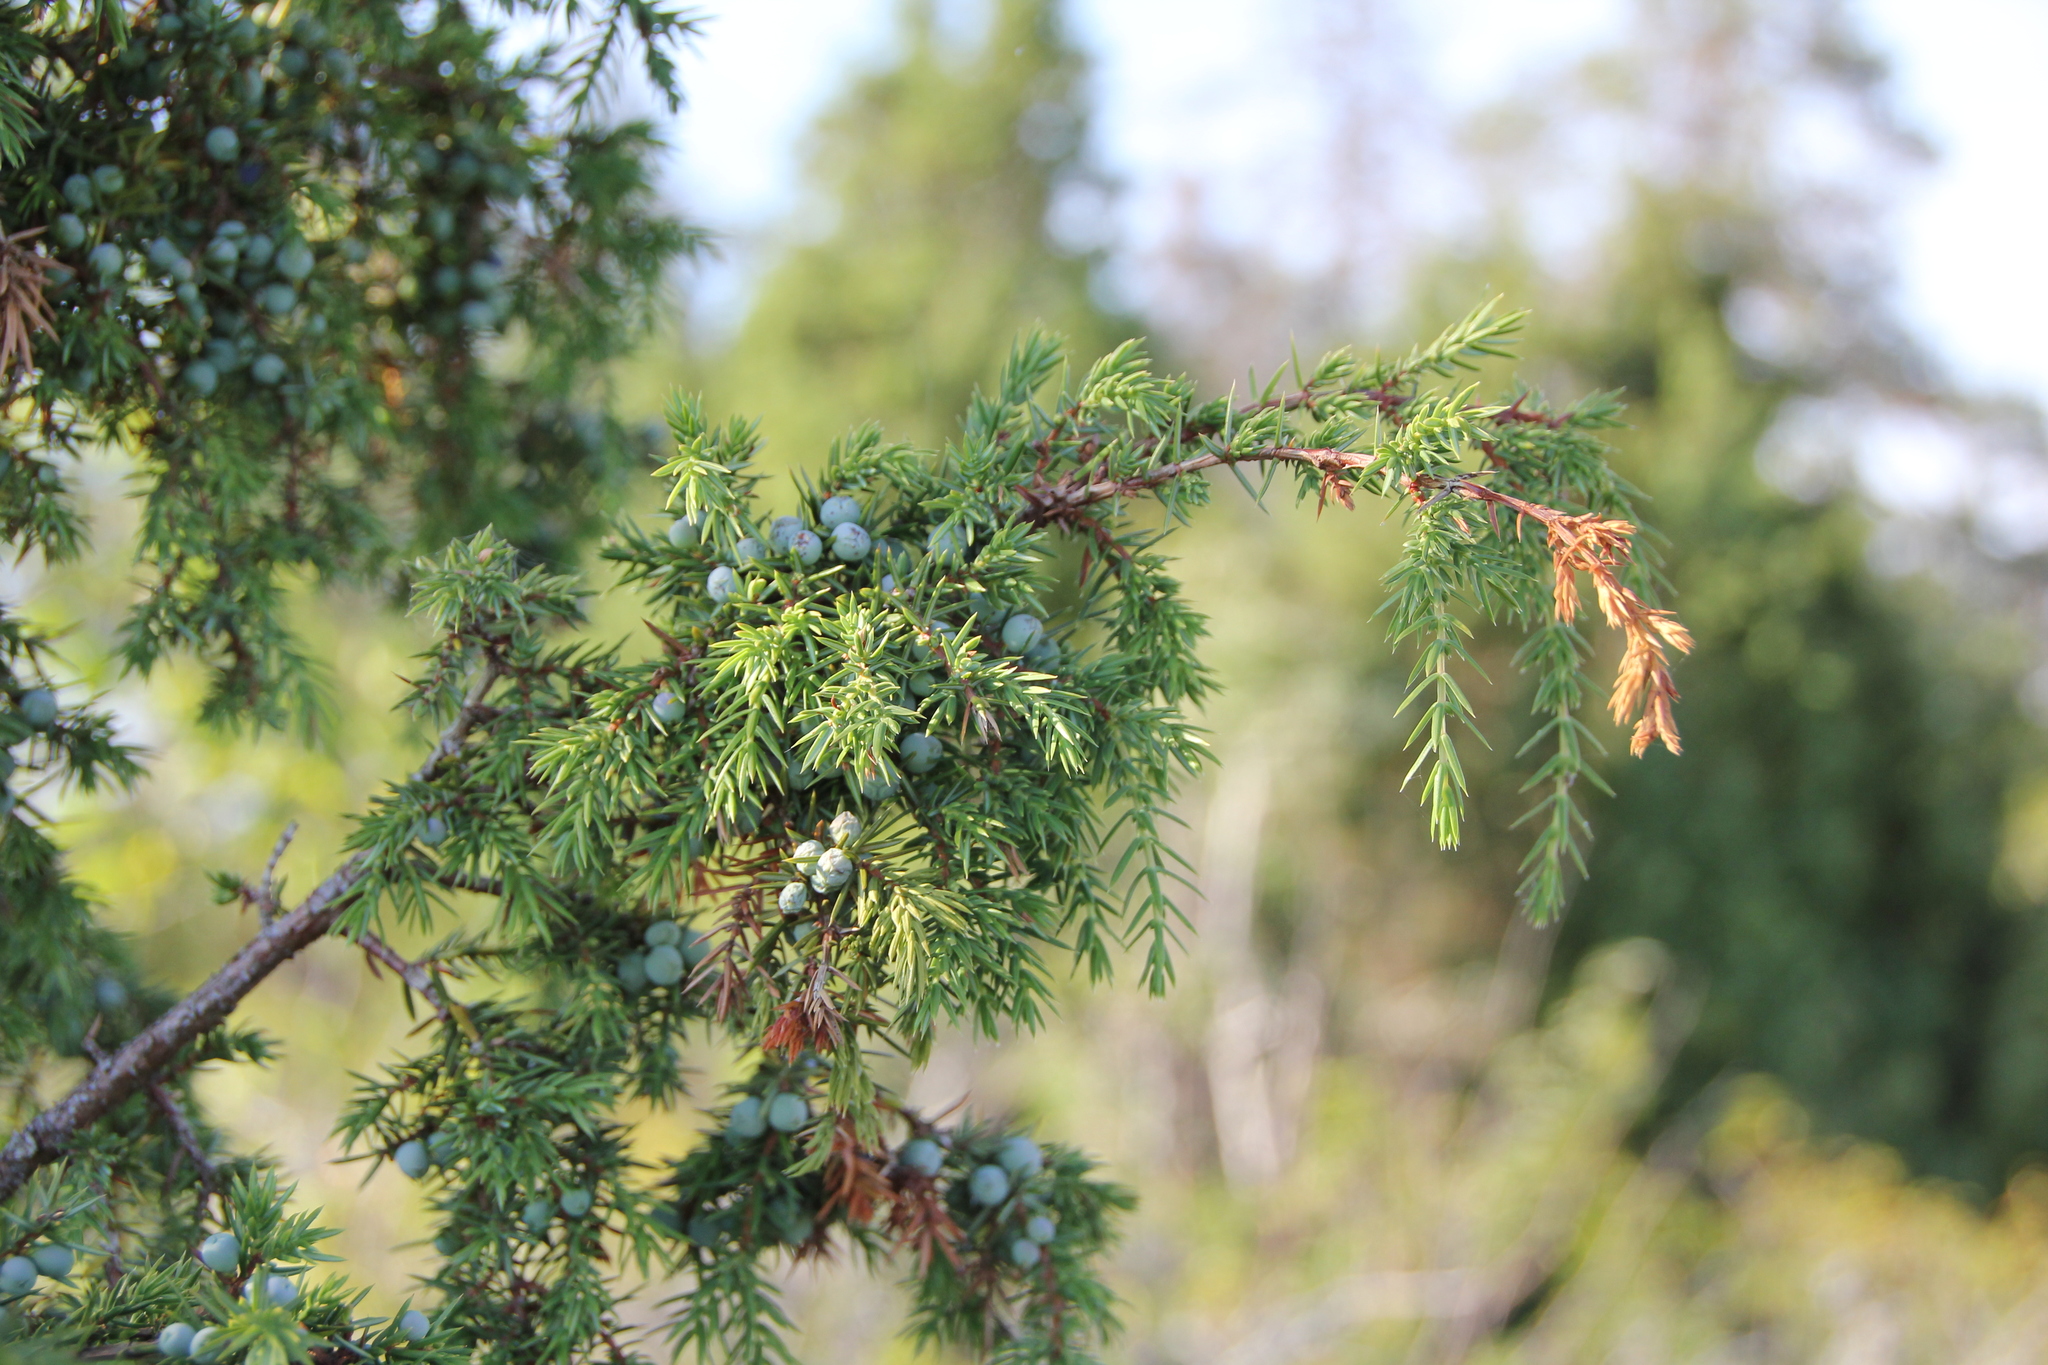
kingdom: Plantae
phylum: Tracheophyta
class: Pinopsida
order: Pinales
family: Cupressaceae
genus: Juniperus
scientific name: Juniperus communis
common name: Common juniper
